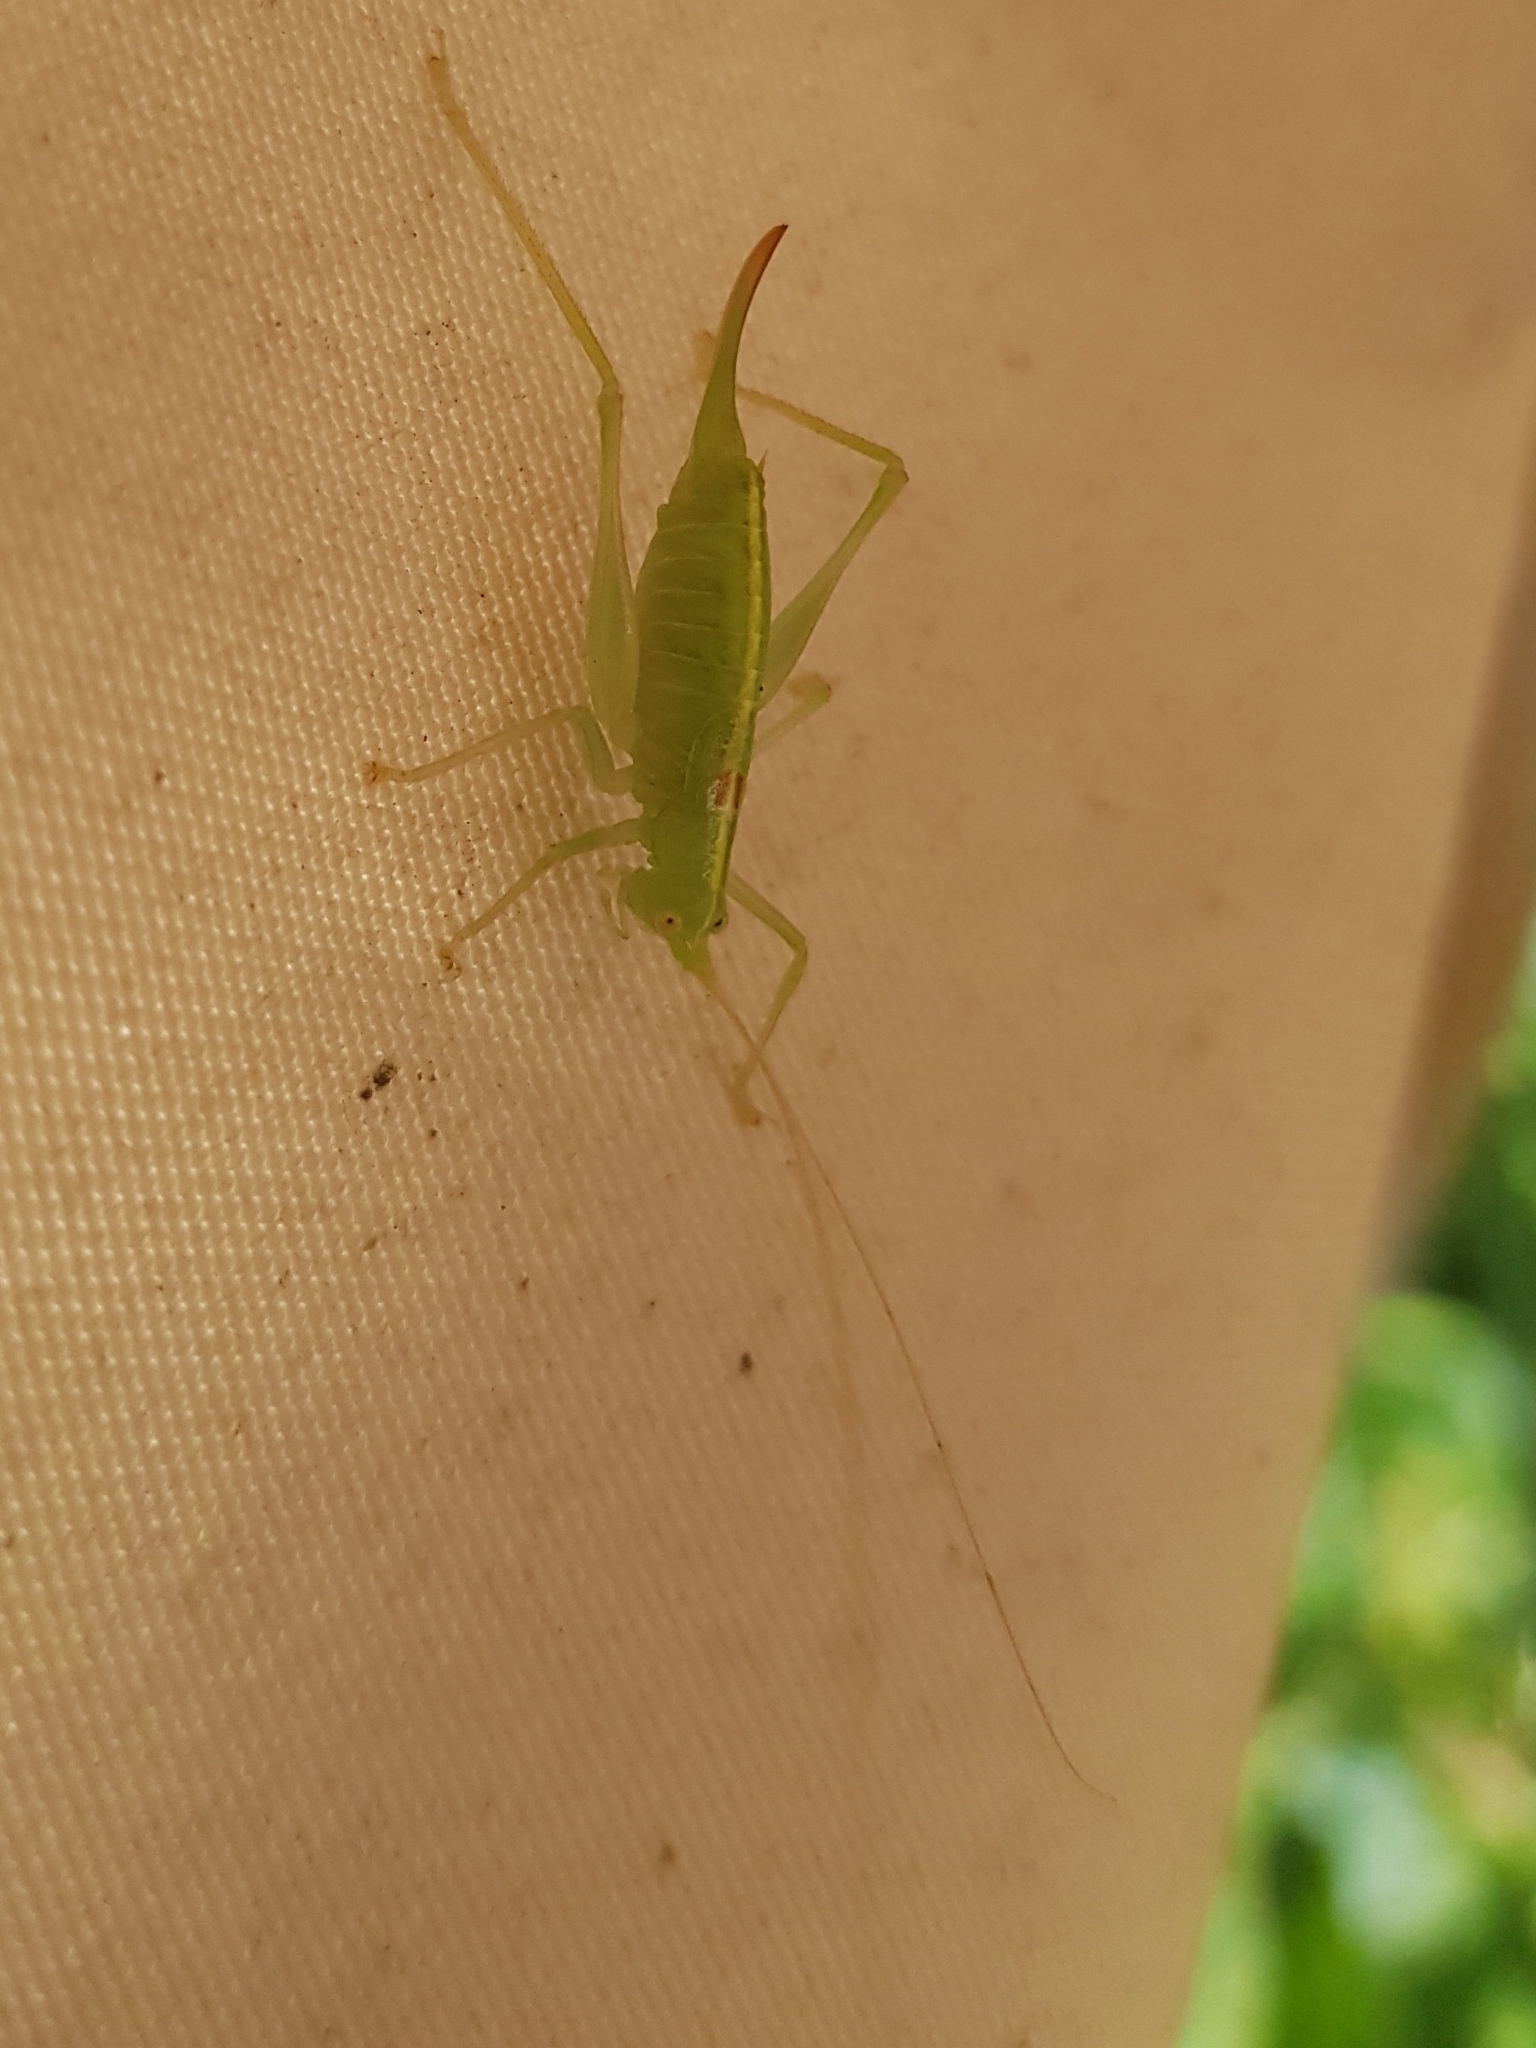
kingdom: Animalia
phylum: Arthropoda
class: Insecta
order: Orthoptera
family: Tettigoniidae
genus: Meconema
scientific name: Meconema meridionale
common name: Southern oak bush-cricket
